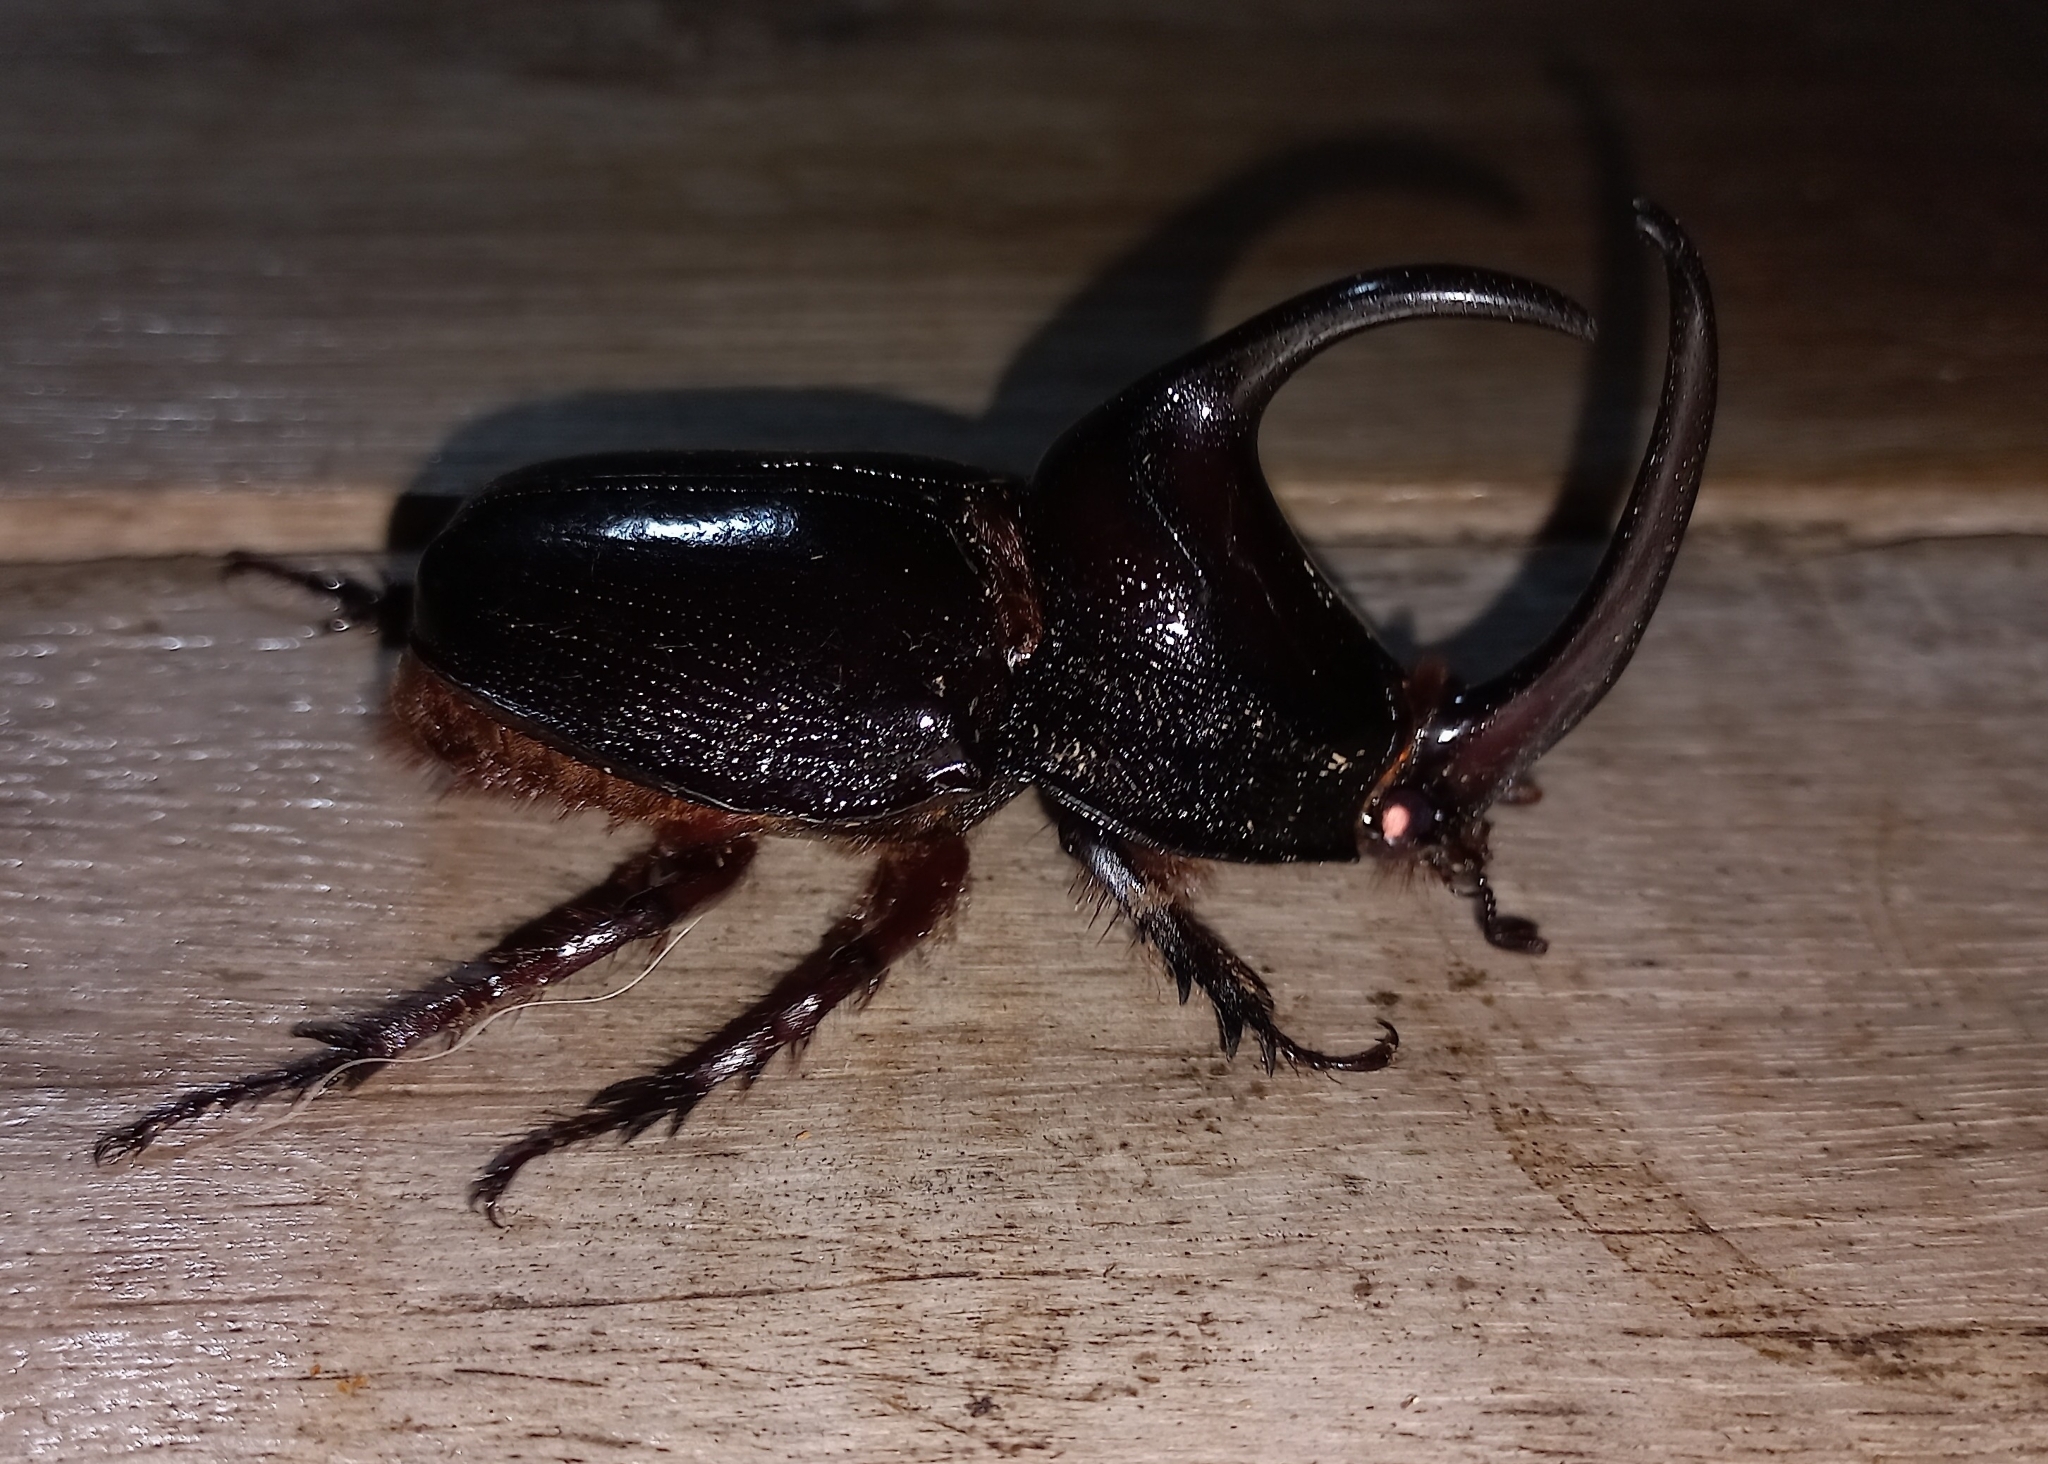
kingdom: Animalia
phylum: Arthropoda
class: Insecta
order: Coleoptera
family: Scarabaeidae
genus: Enema
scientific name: Enema pan
